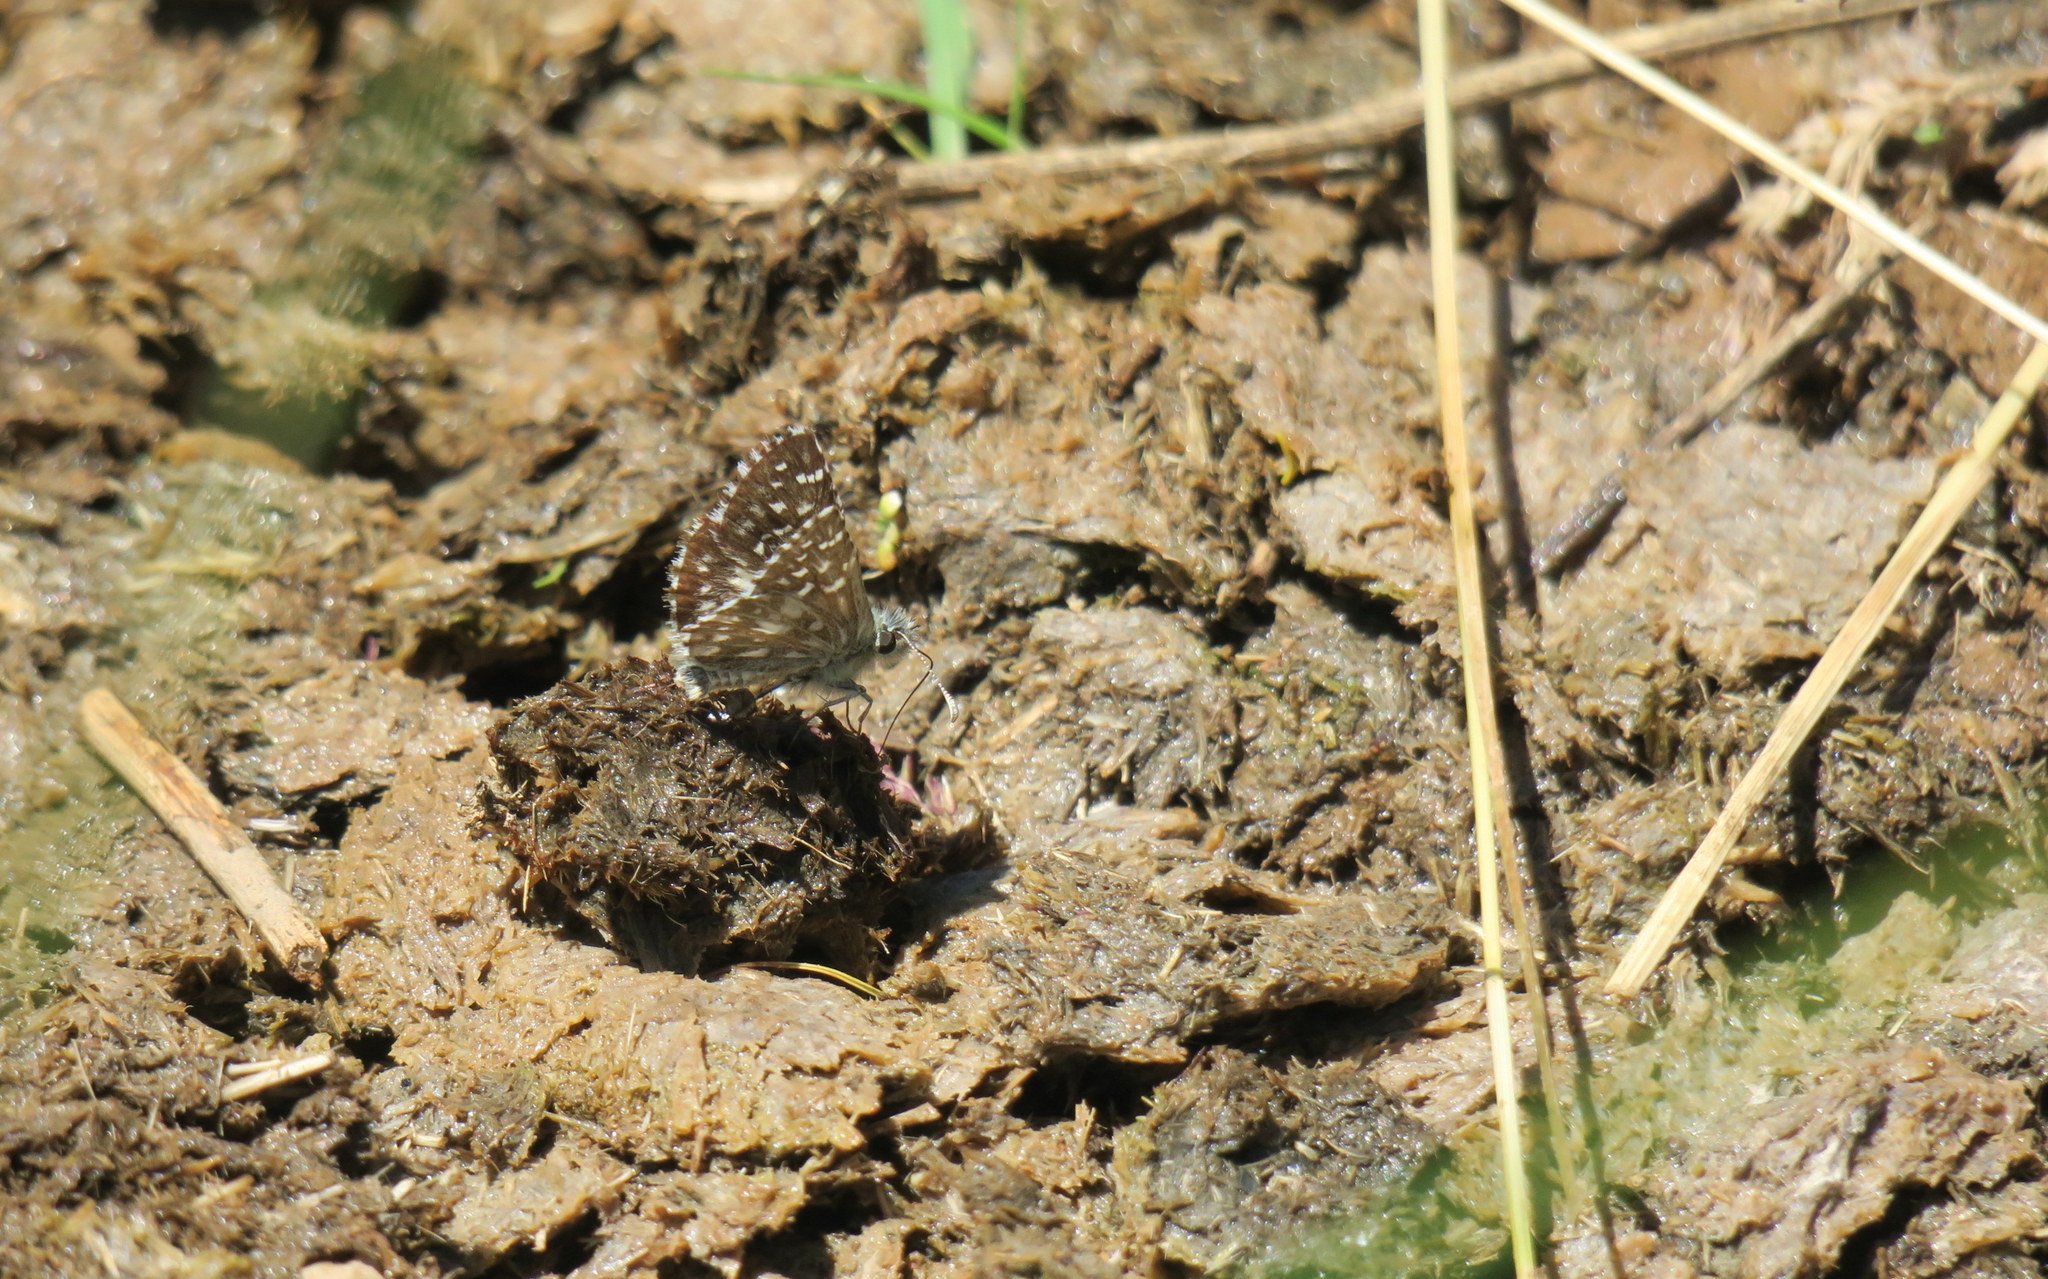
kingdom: Animalia
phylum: Arthropoda
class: Insecta
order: Lepidoptera
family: Hesperiidae
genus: Pyrgus
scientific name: Pyrgus malvae
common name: Grizzled skipper
